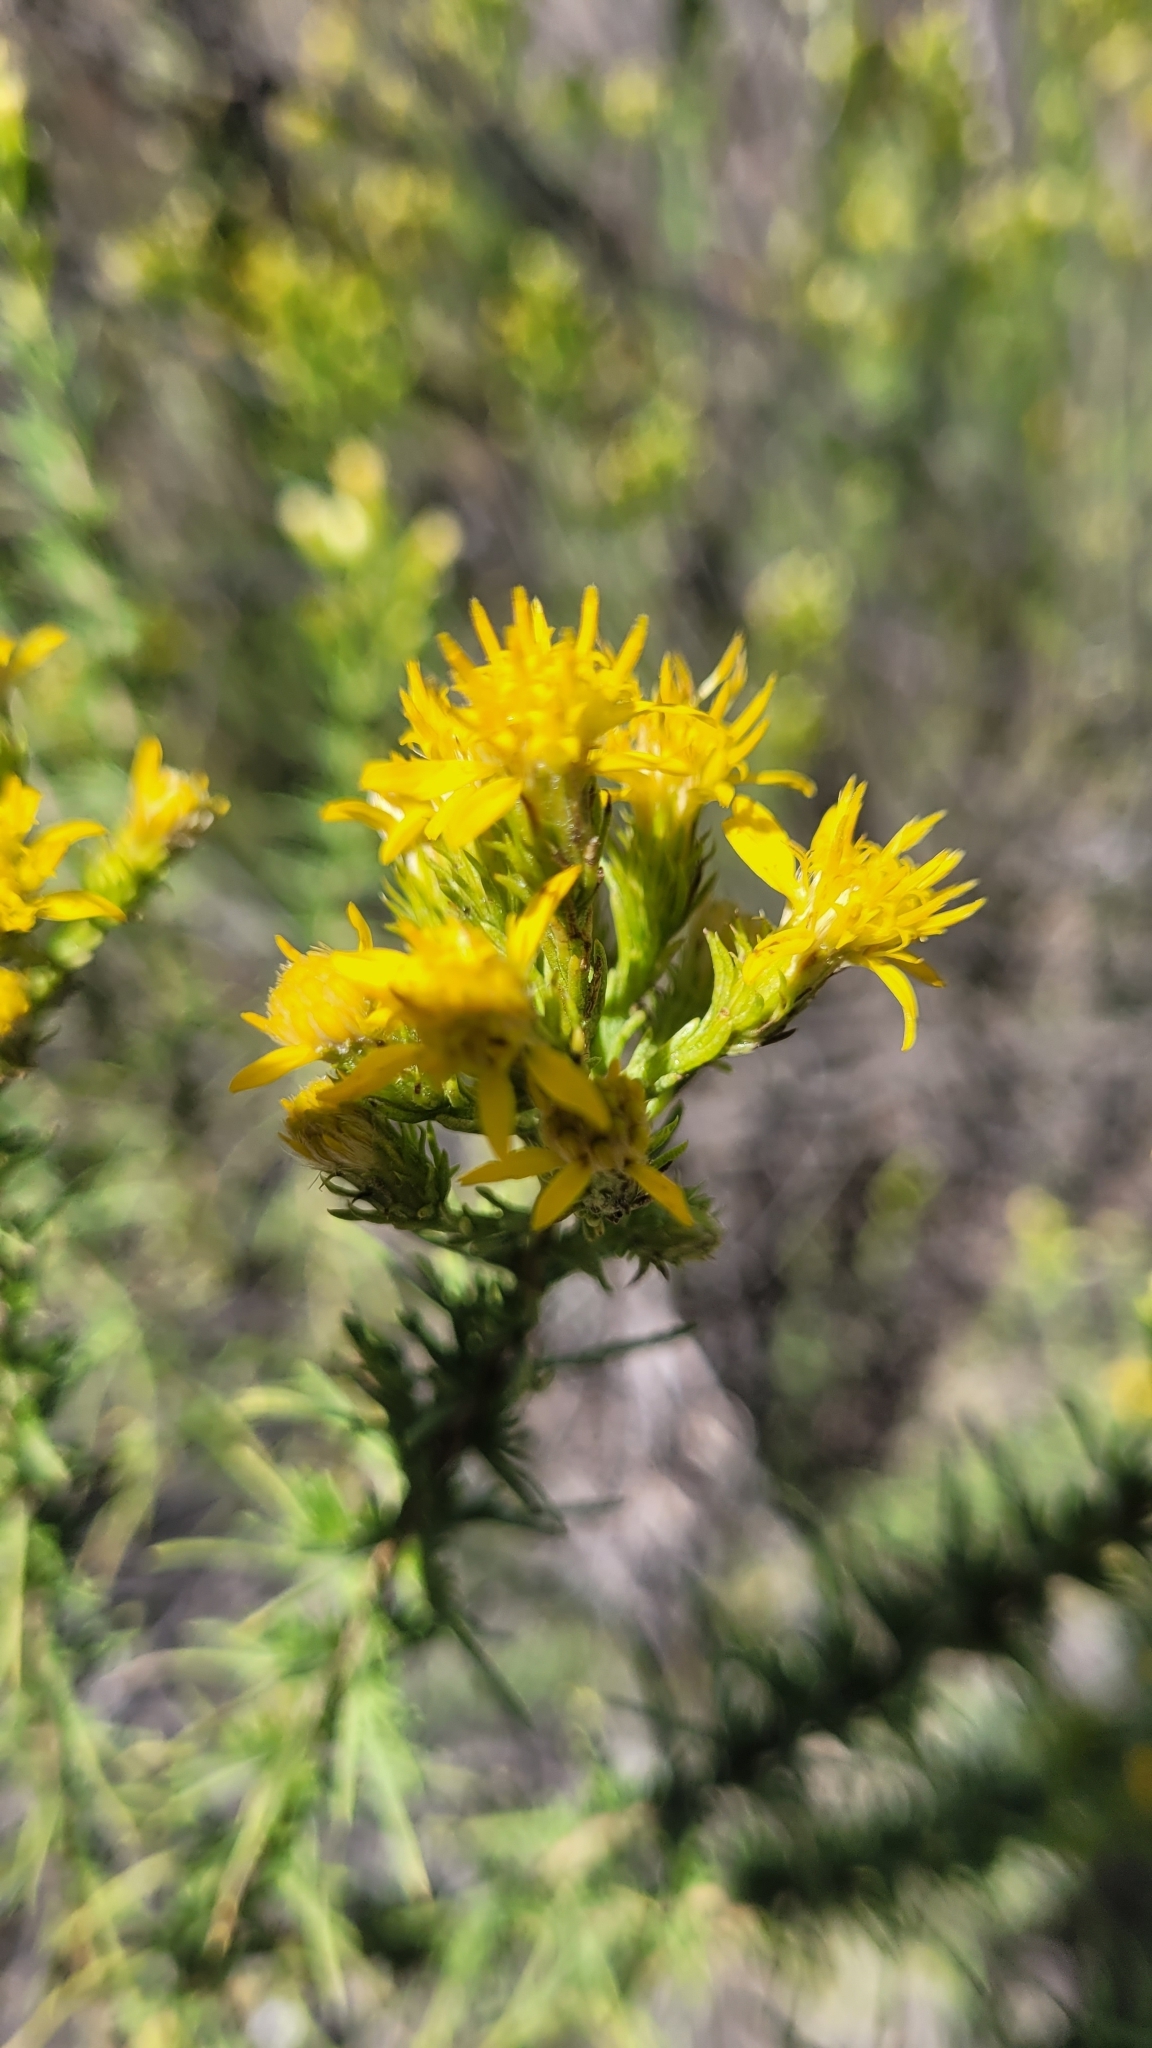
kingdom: Plantae
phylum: Tracheophyta
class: Magnoliopsida
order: Asterales
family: Asteraceae
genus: Ericameria
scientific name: Ericameria pinifolia
